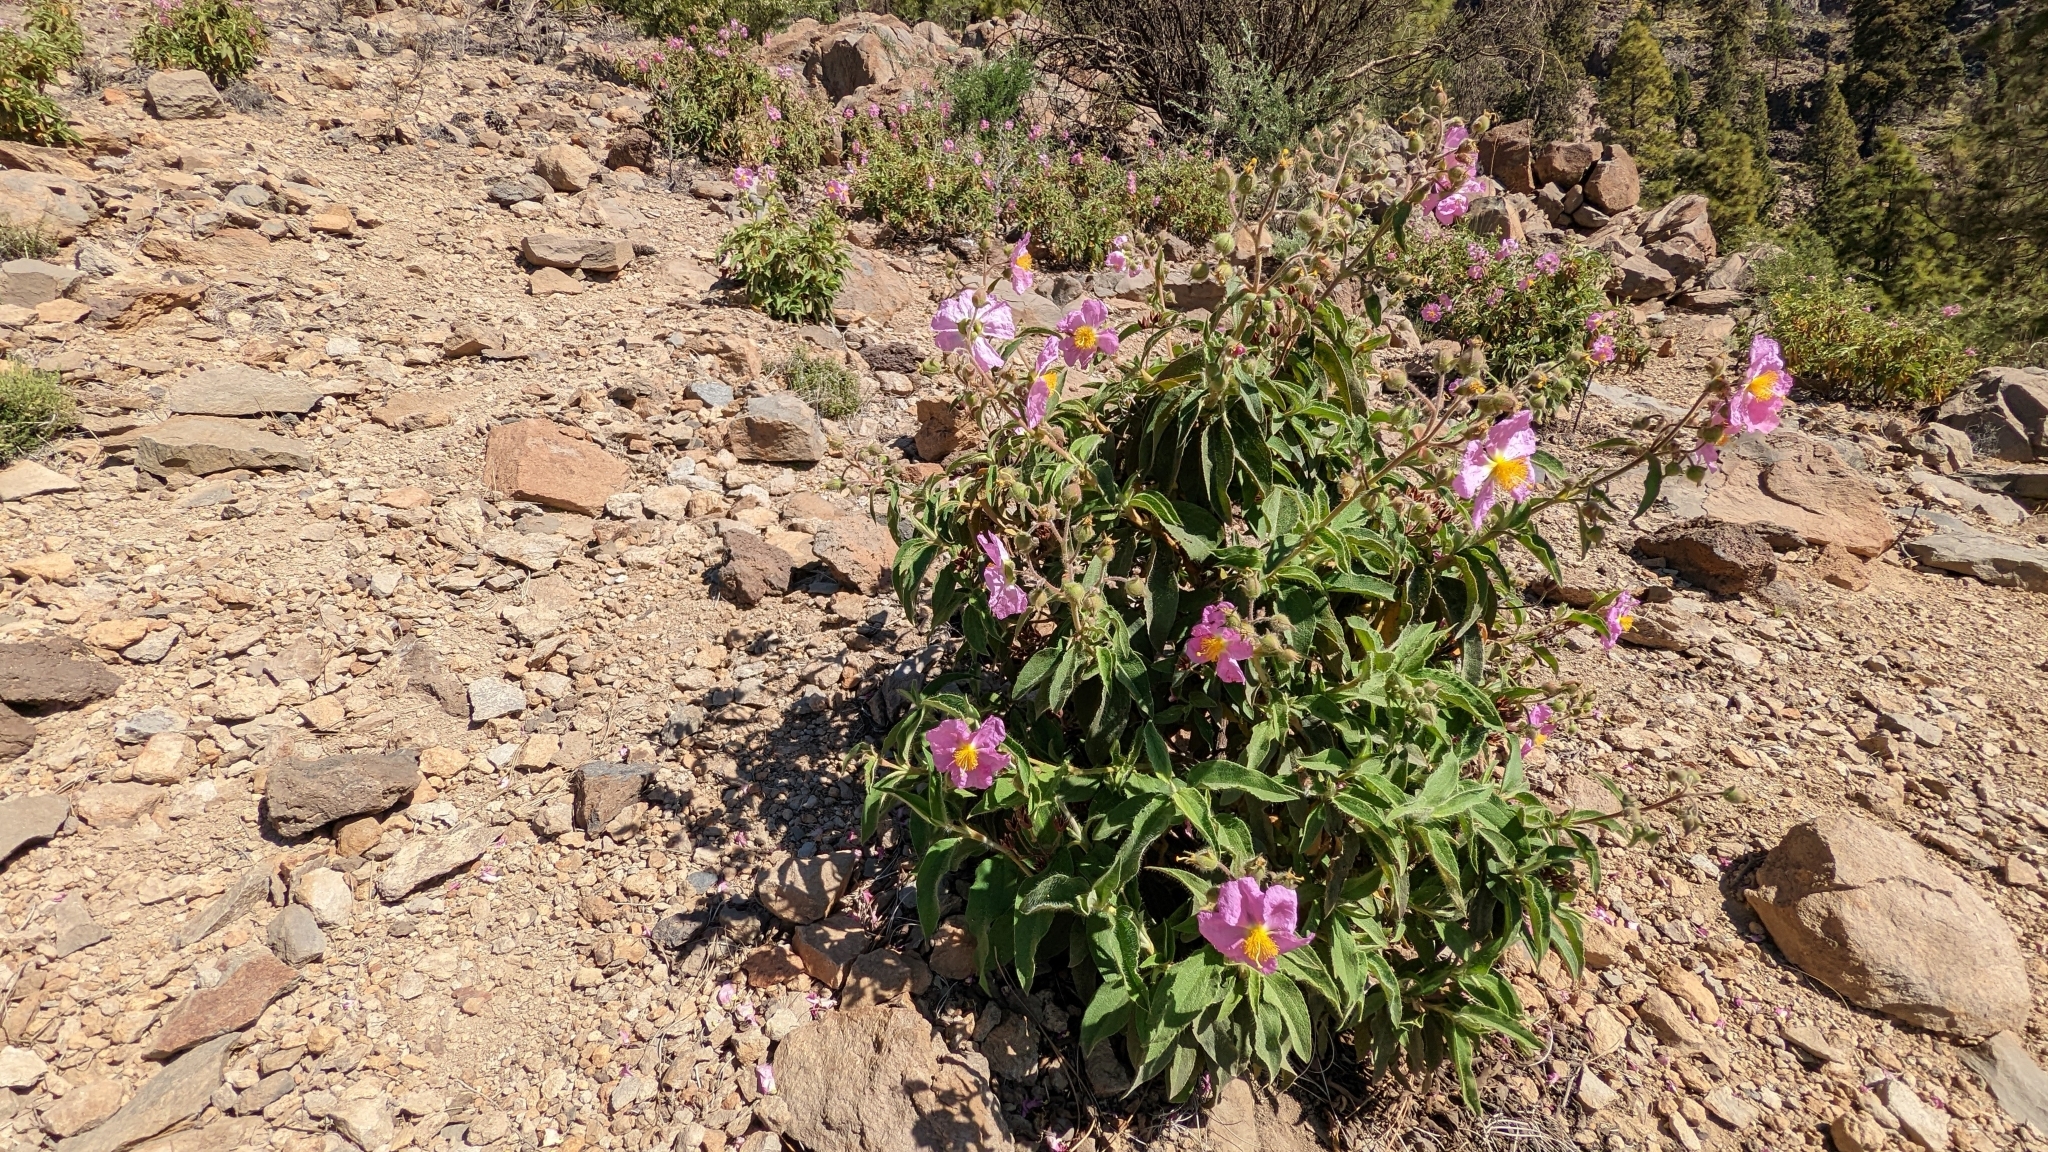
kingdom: Plantae
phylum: Tracheophyta
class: Magnoliopsida
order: Malvales
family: Cistaceae
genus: Cistus
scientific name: Cistus symphytifolius
